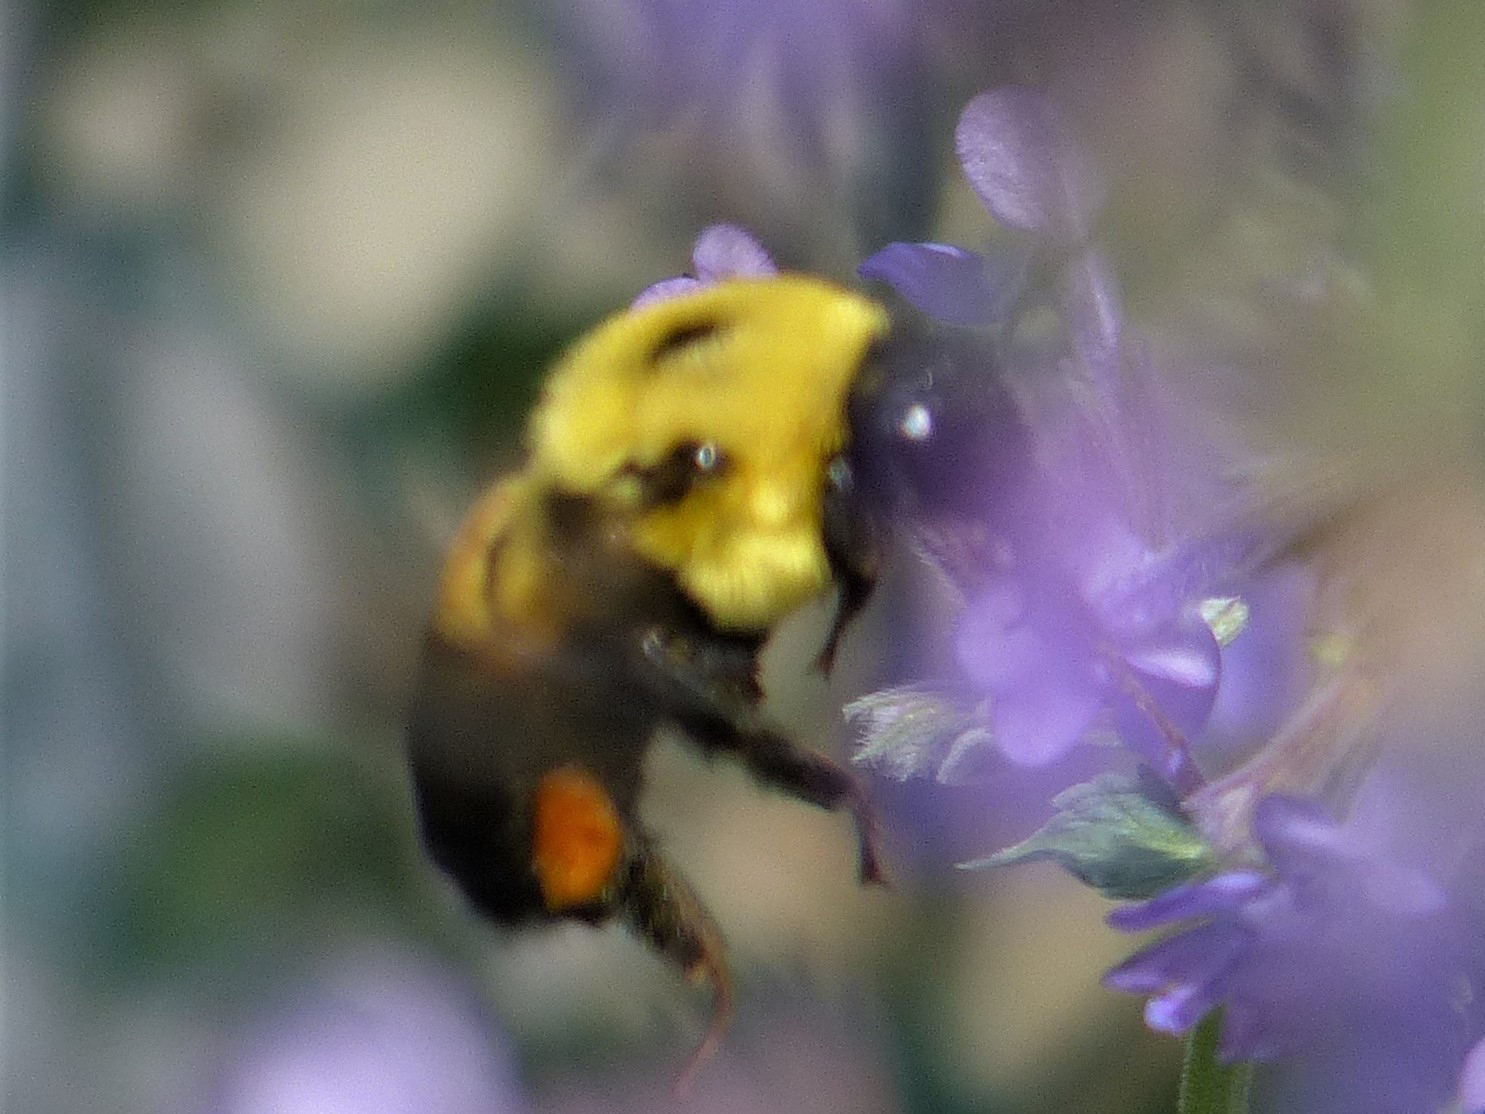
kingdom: Animalia
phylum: Arthropoda
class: Insecta
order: Hymenoptera
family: Apidae
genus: Bombus
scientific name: Bombus griseocollis
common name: Brown-belted bumble bee
